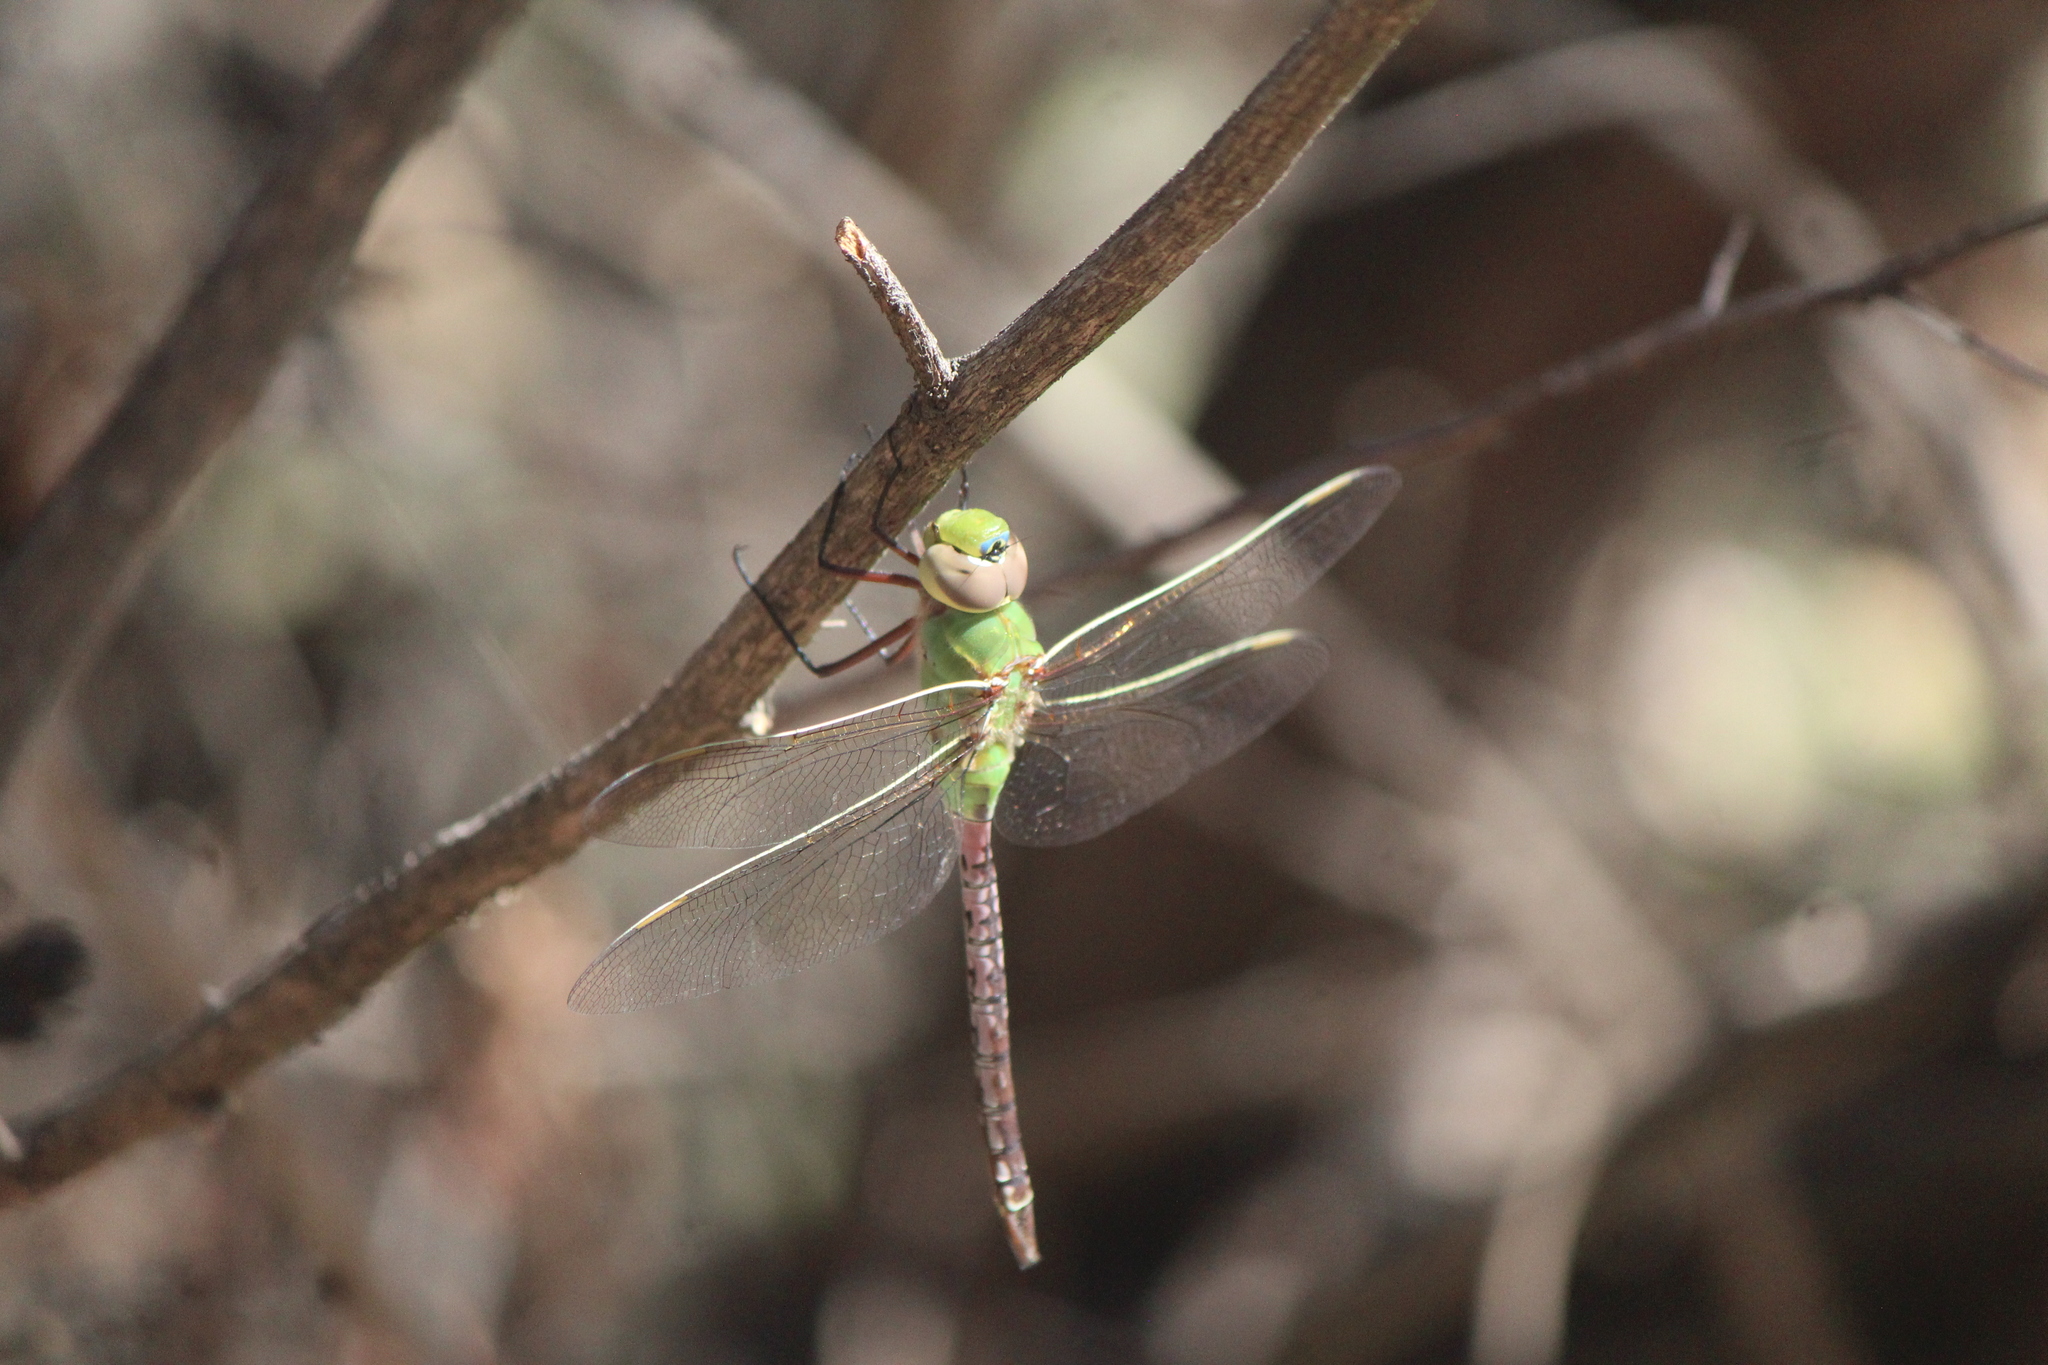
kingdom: Animalia
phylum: Arthropoda
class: Insecta
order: Odonata
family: Aeshnidae
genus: Anax
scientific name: Anax junius
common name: Common green darner
